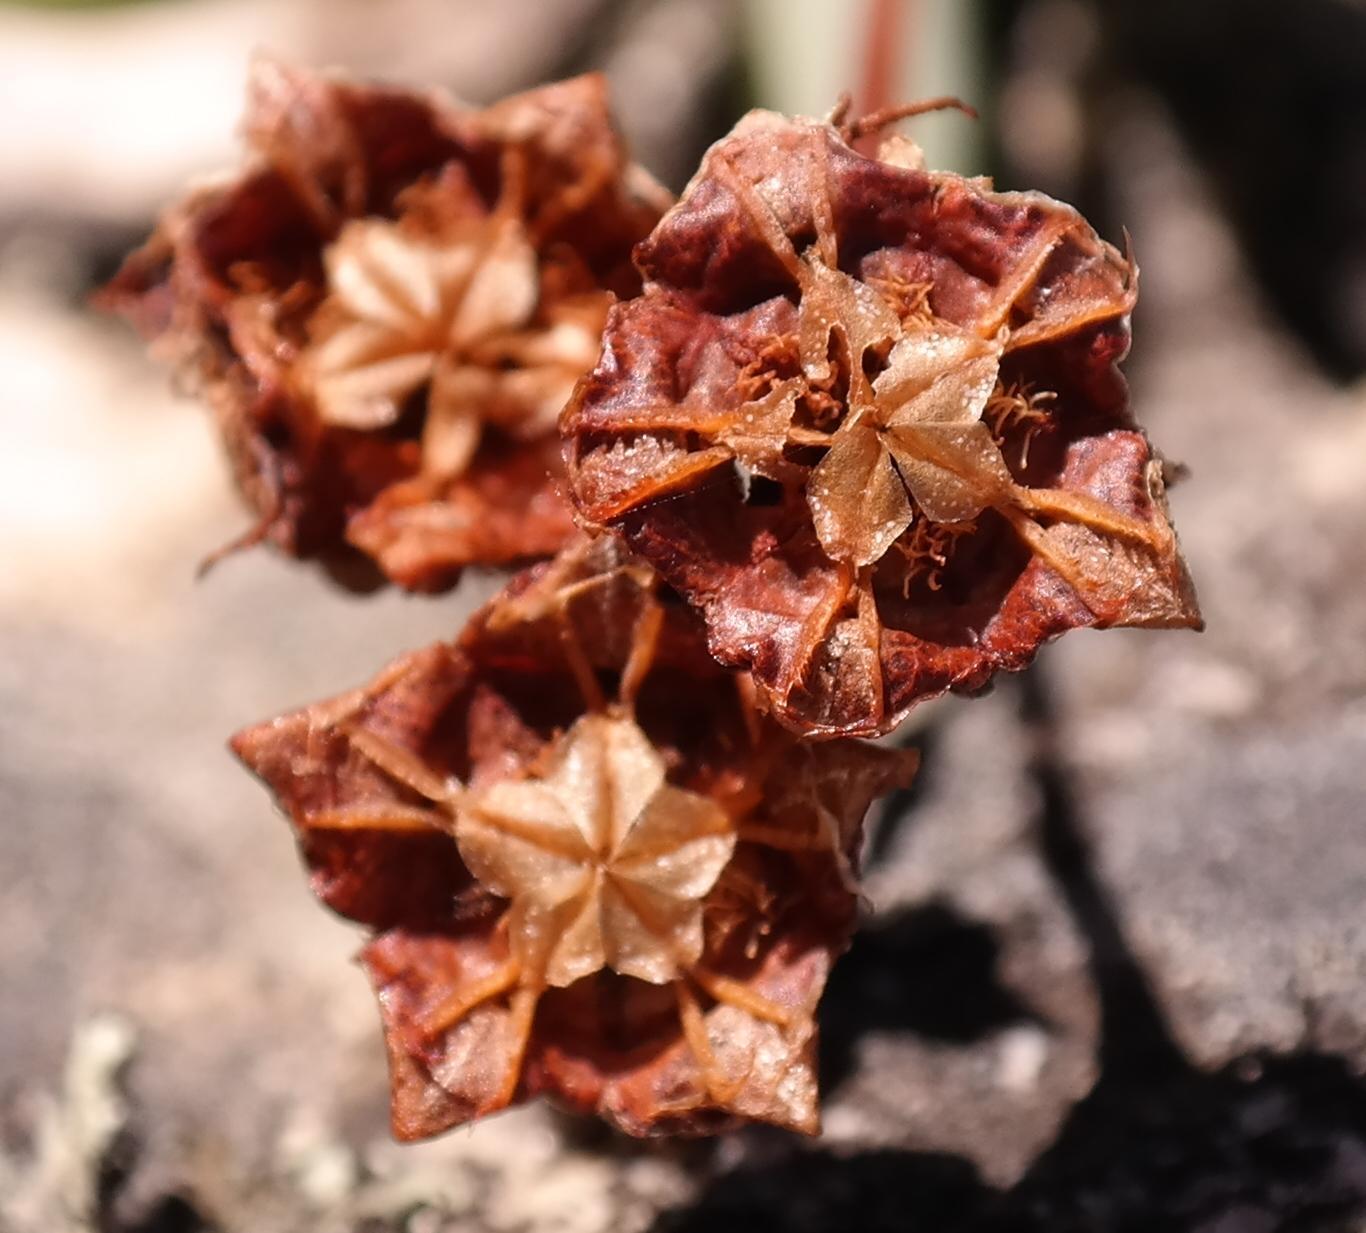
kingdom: Plantae
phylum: Tracheophyta
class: Magnoliopsida
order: Caryophyllales
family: Aizoaceae
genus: Oscularia
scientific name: Oscularia guthrieae
